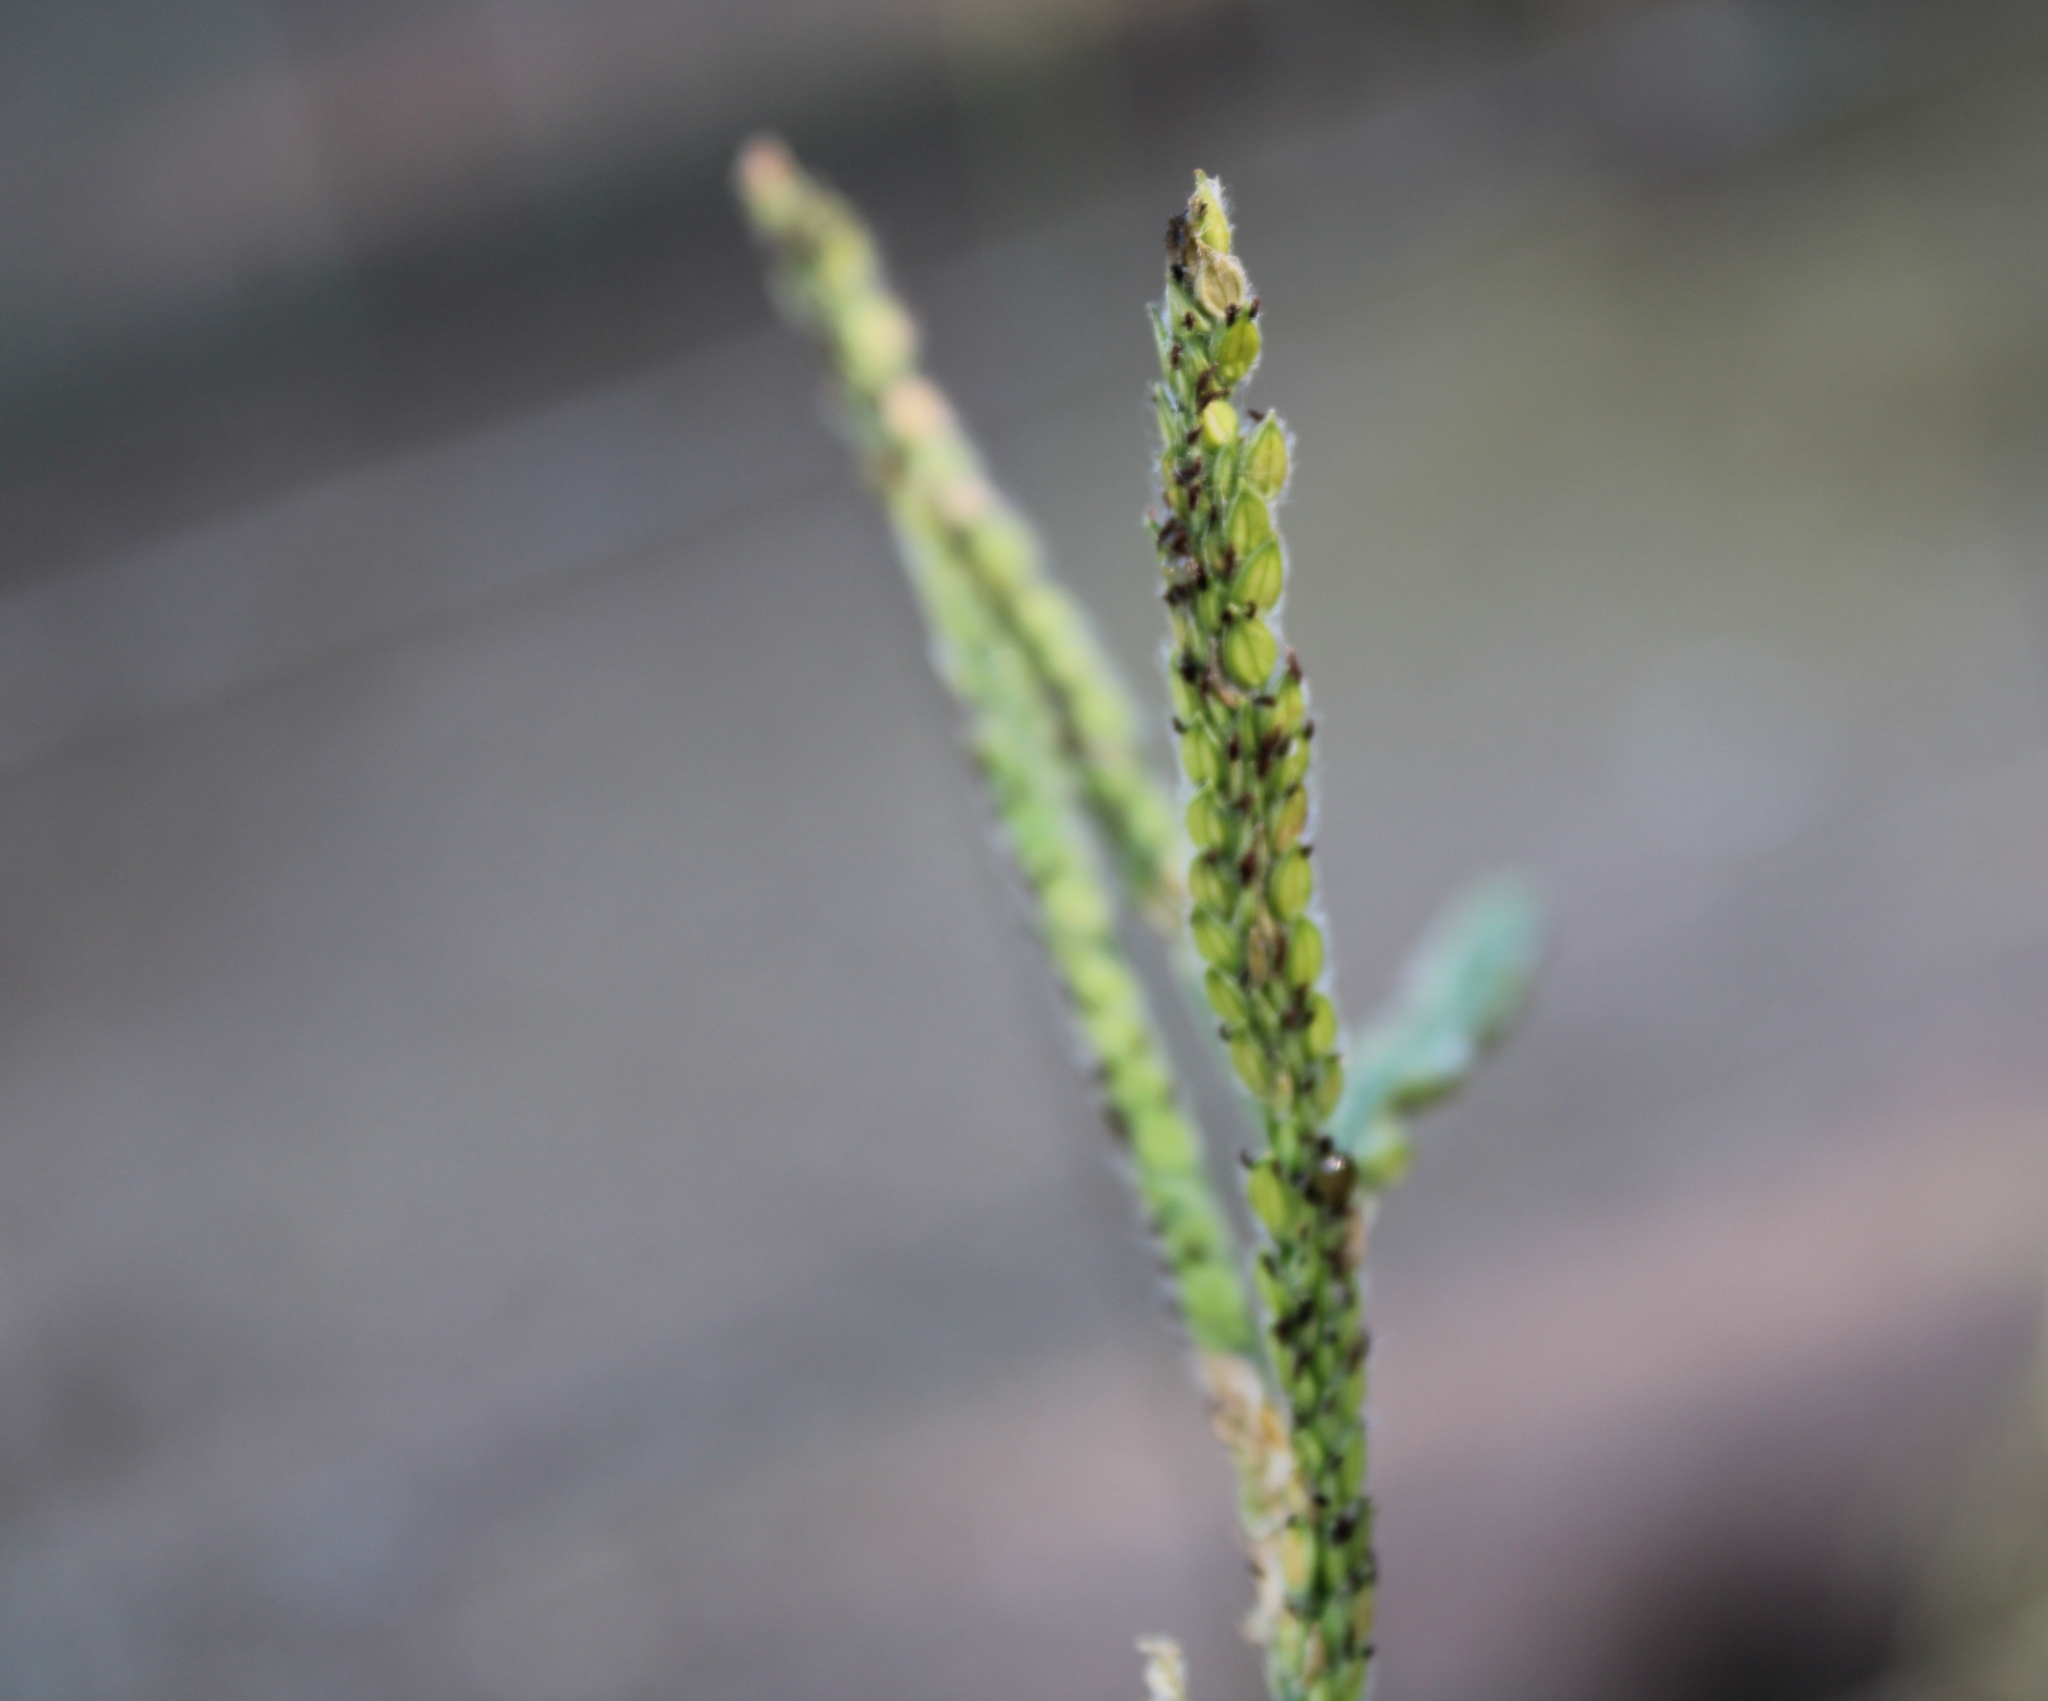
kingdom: Plantae
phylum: Tracheophyta
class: Liliopsida
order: Poales
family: Poaceae
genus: Paspalum
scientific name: Paspalum dilatatum
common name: Dallisgrass
